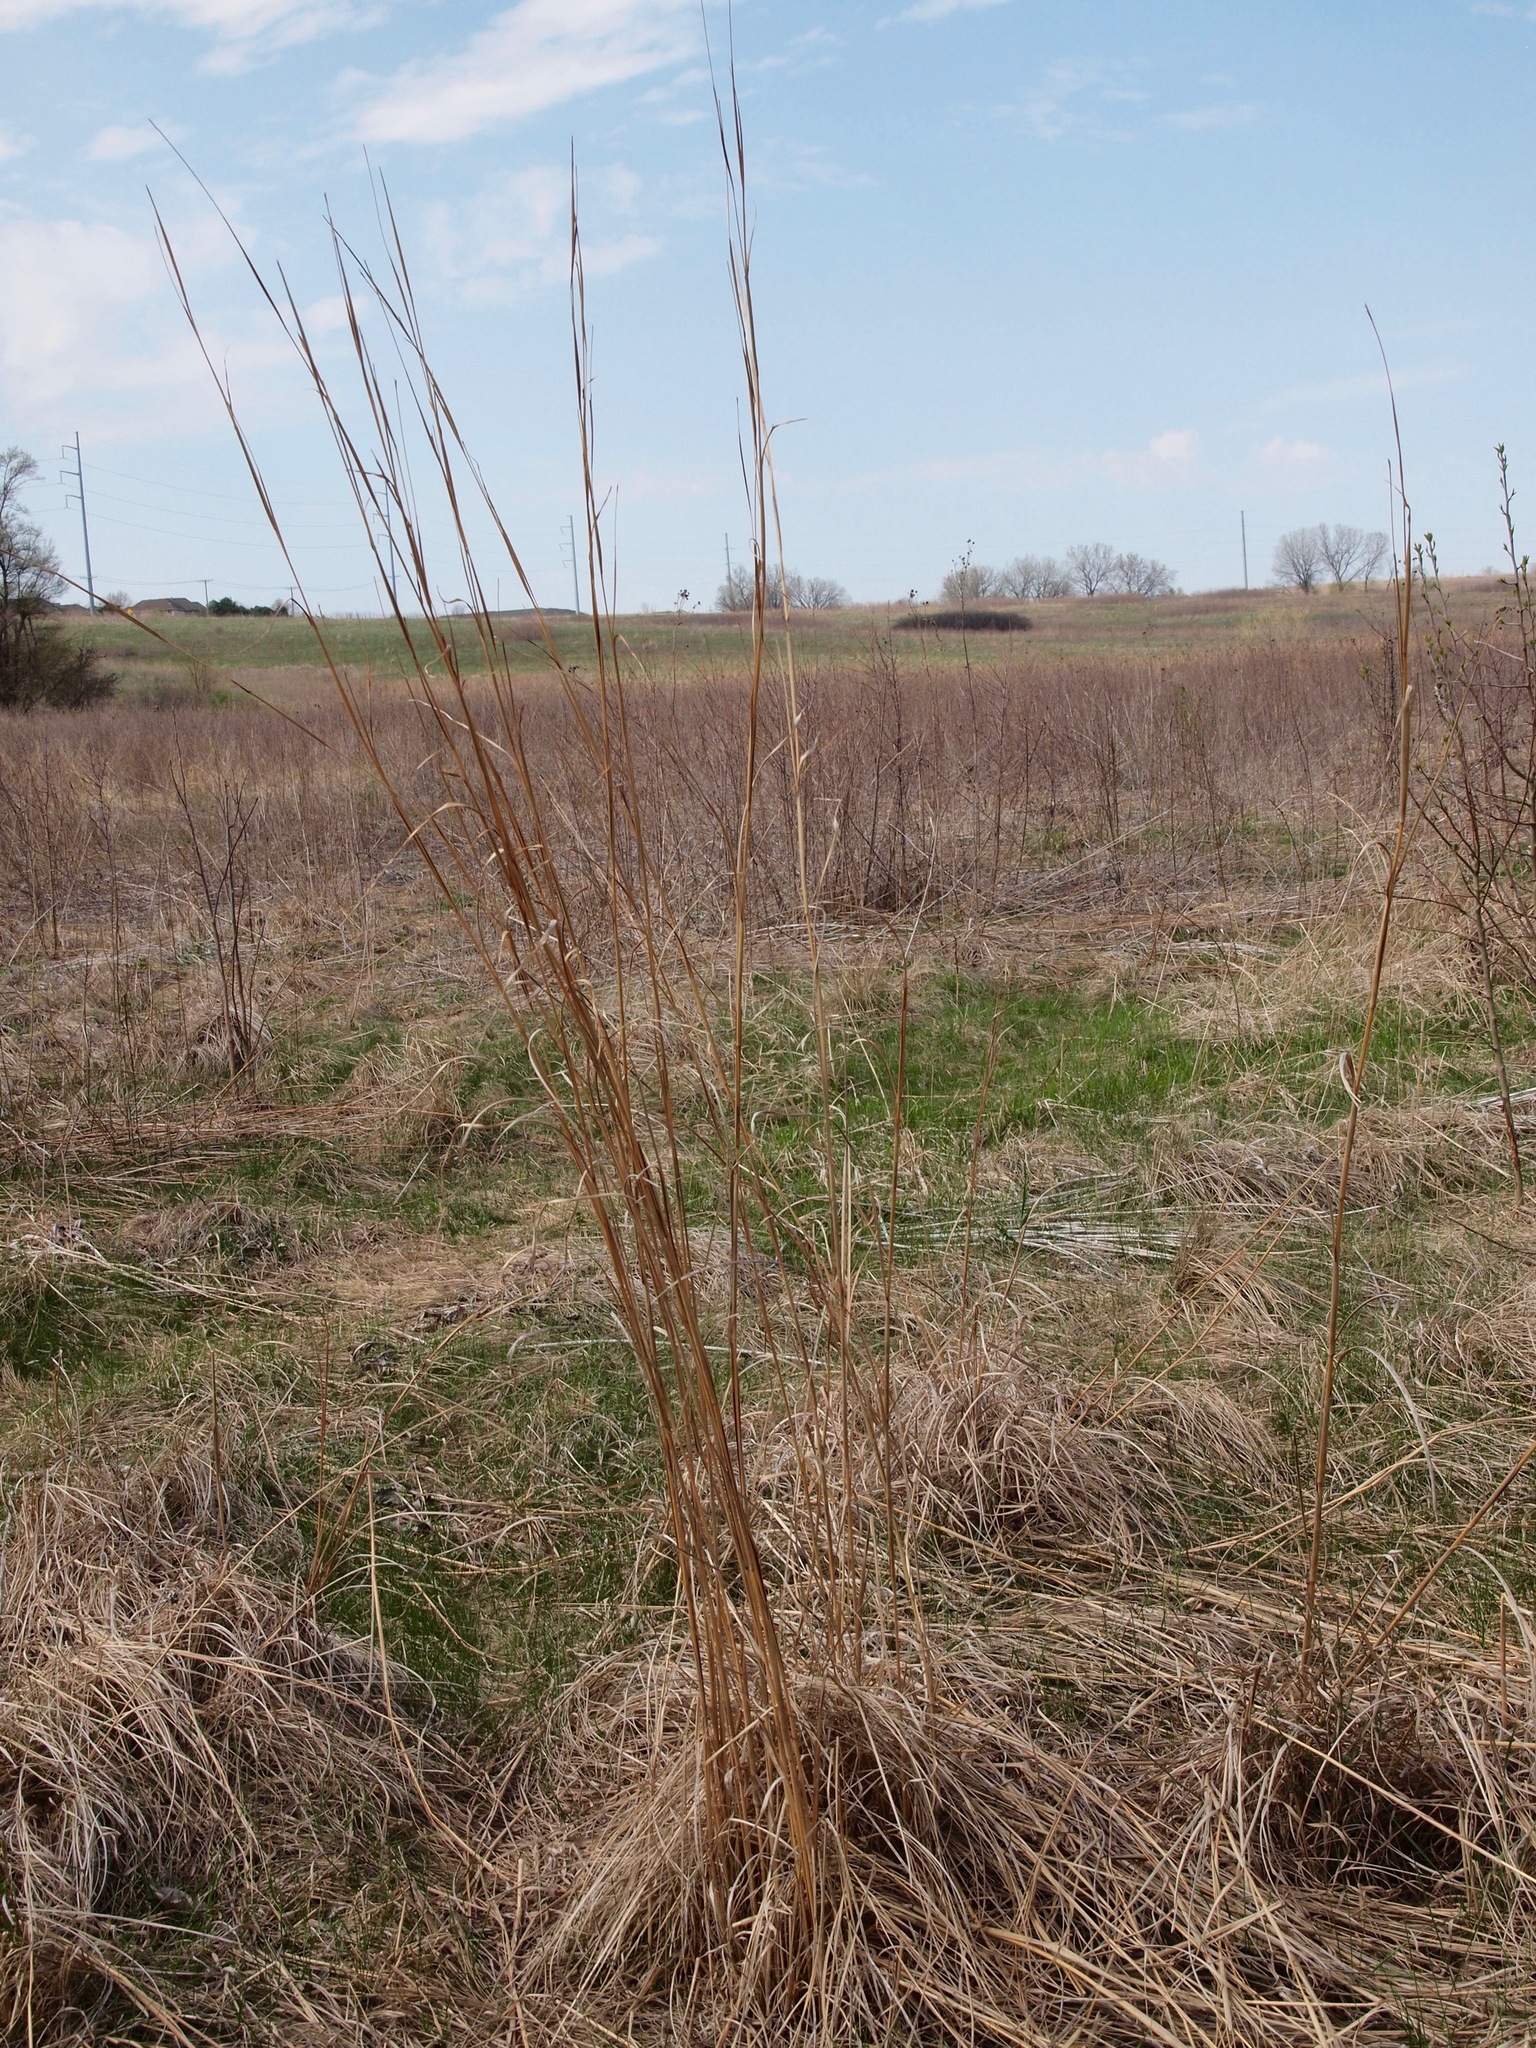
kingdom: Plantae
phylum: Tracheophyta
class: Liliopsida
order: Poales
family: Poaceae
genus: Andropogon
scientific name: Andropogon gerardi
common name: Big bluestem
